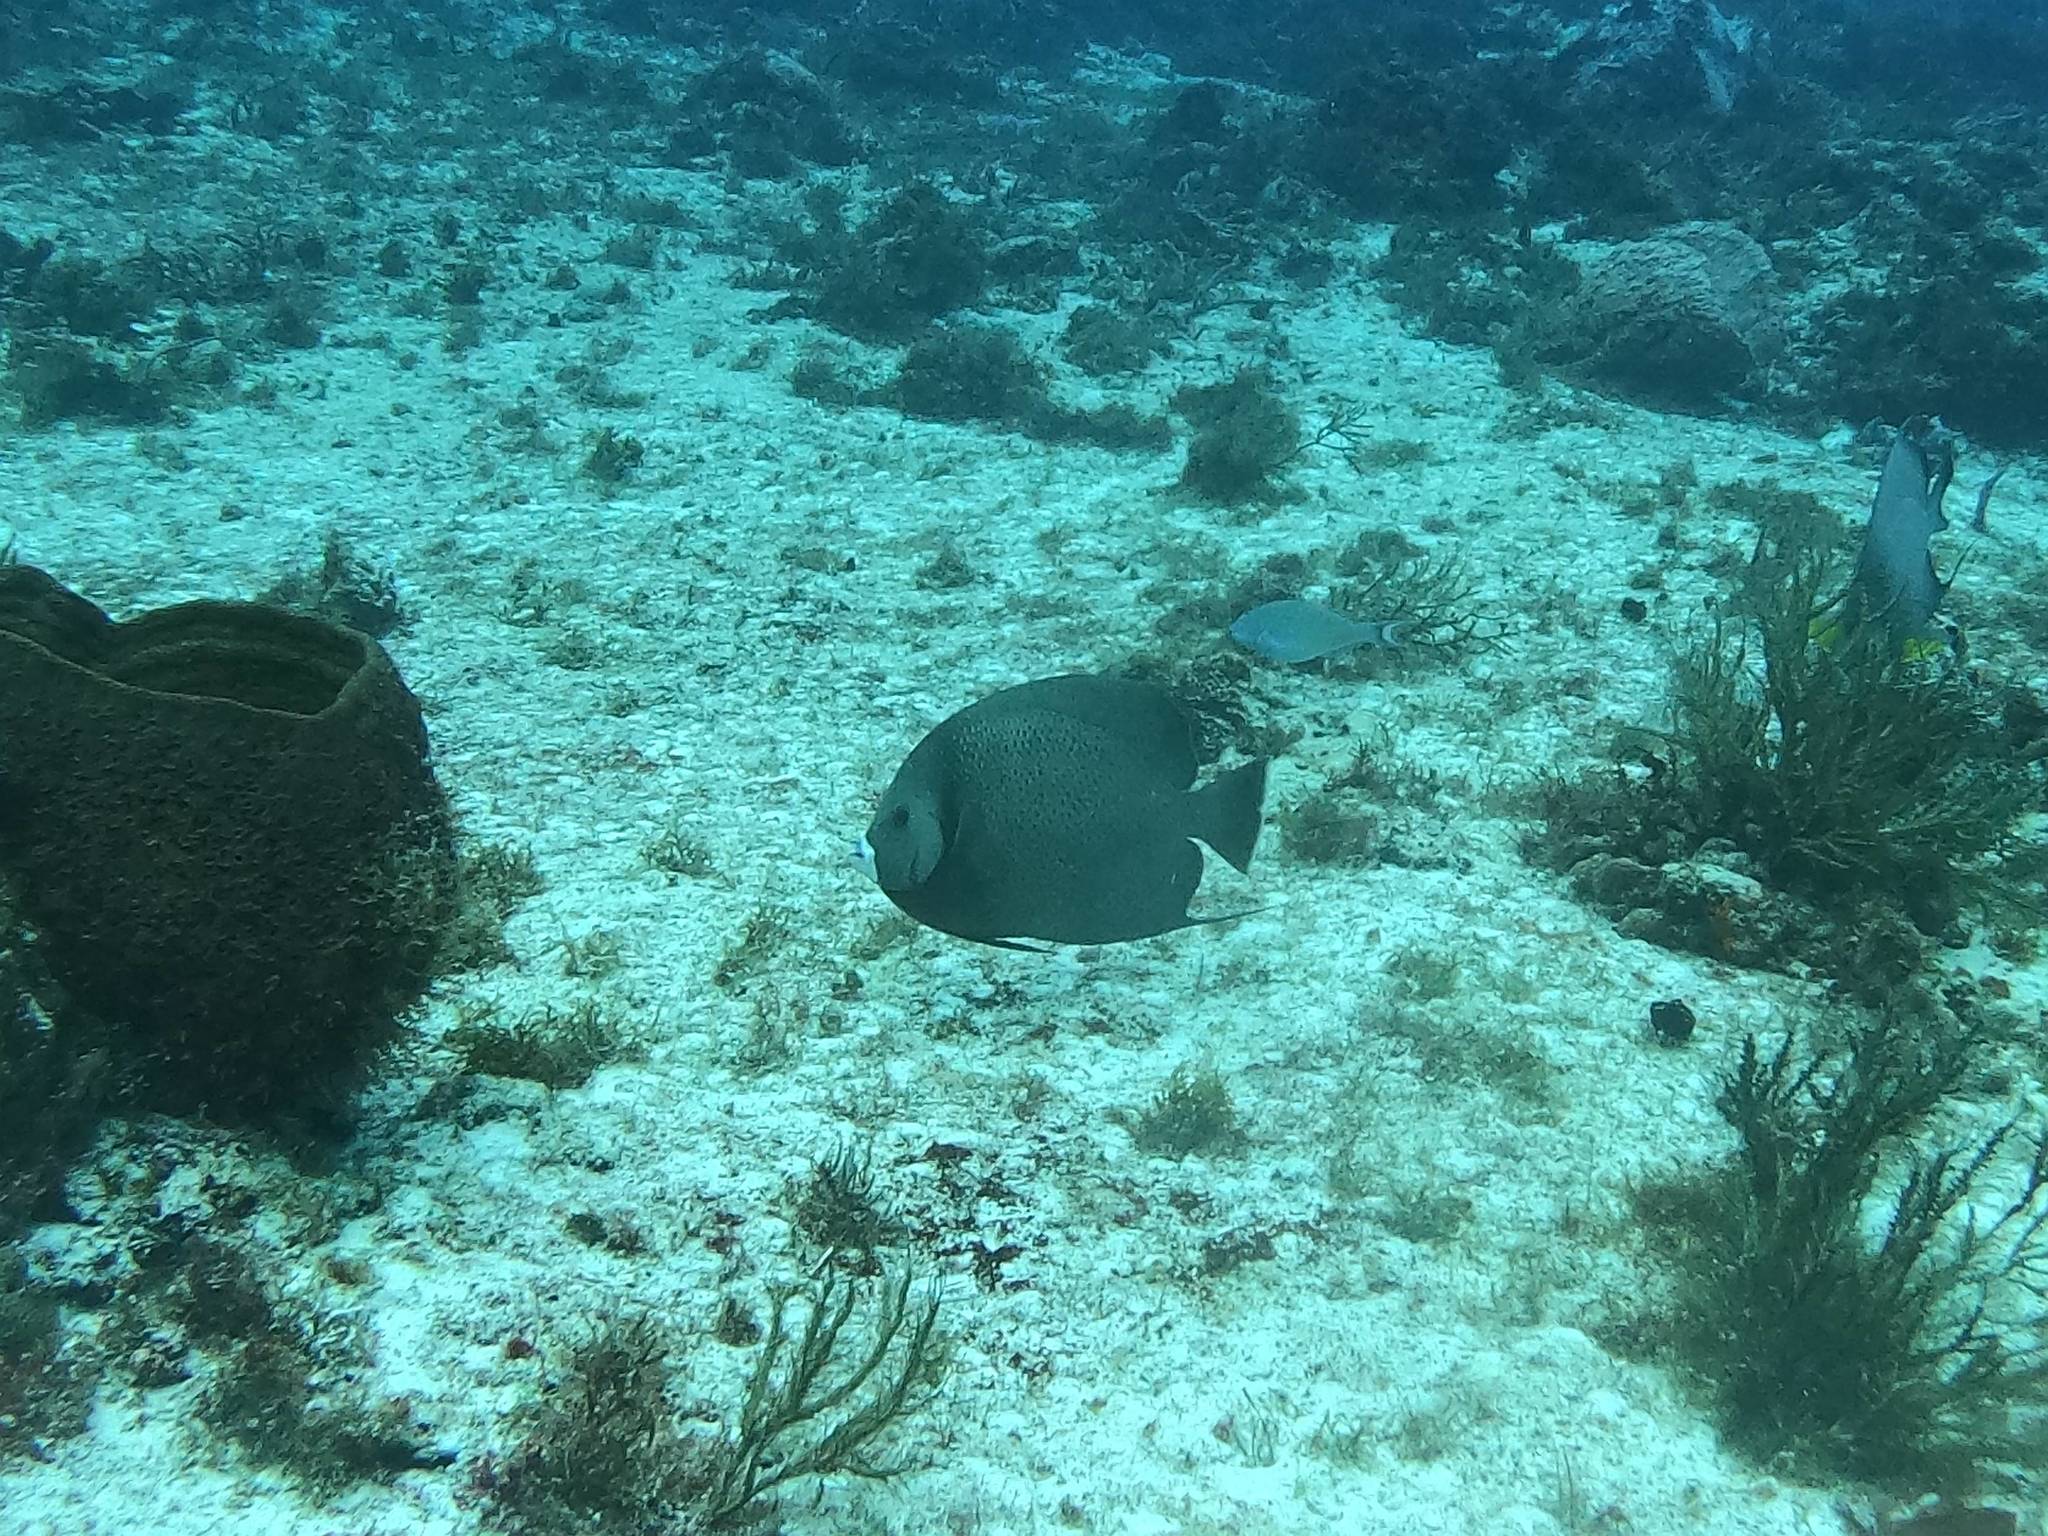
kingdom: Animalia
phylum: Chordata
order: Perciformes
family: Pomacanthidae
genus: Pomacanthus
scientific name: Pomacanthus arcuatus
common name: Gray angelfish
